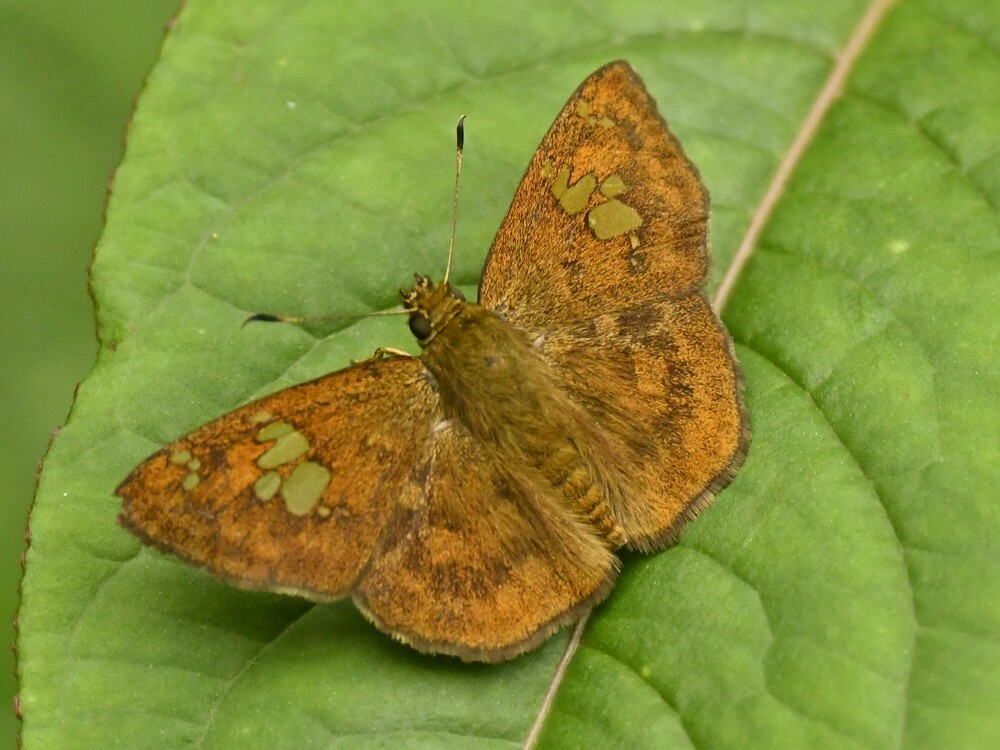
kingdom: Animalia
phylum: Arthropoda
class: Insecta
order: Lepidoptera
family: Hesperiidae
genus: Pseudocoladenia
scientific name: Pseudocoladenia dan
